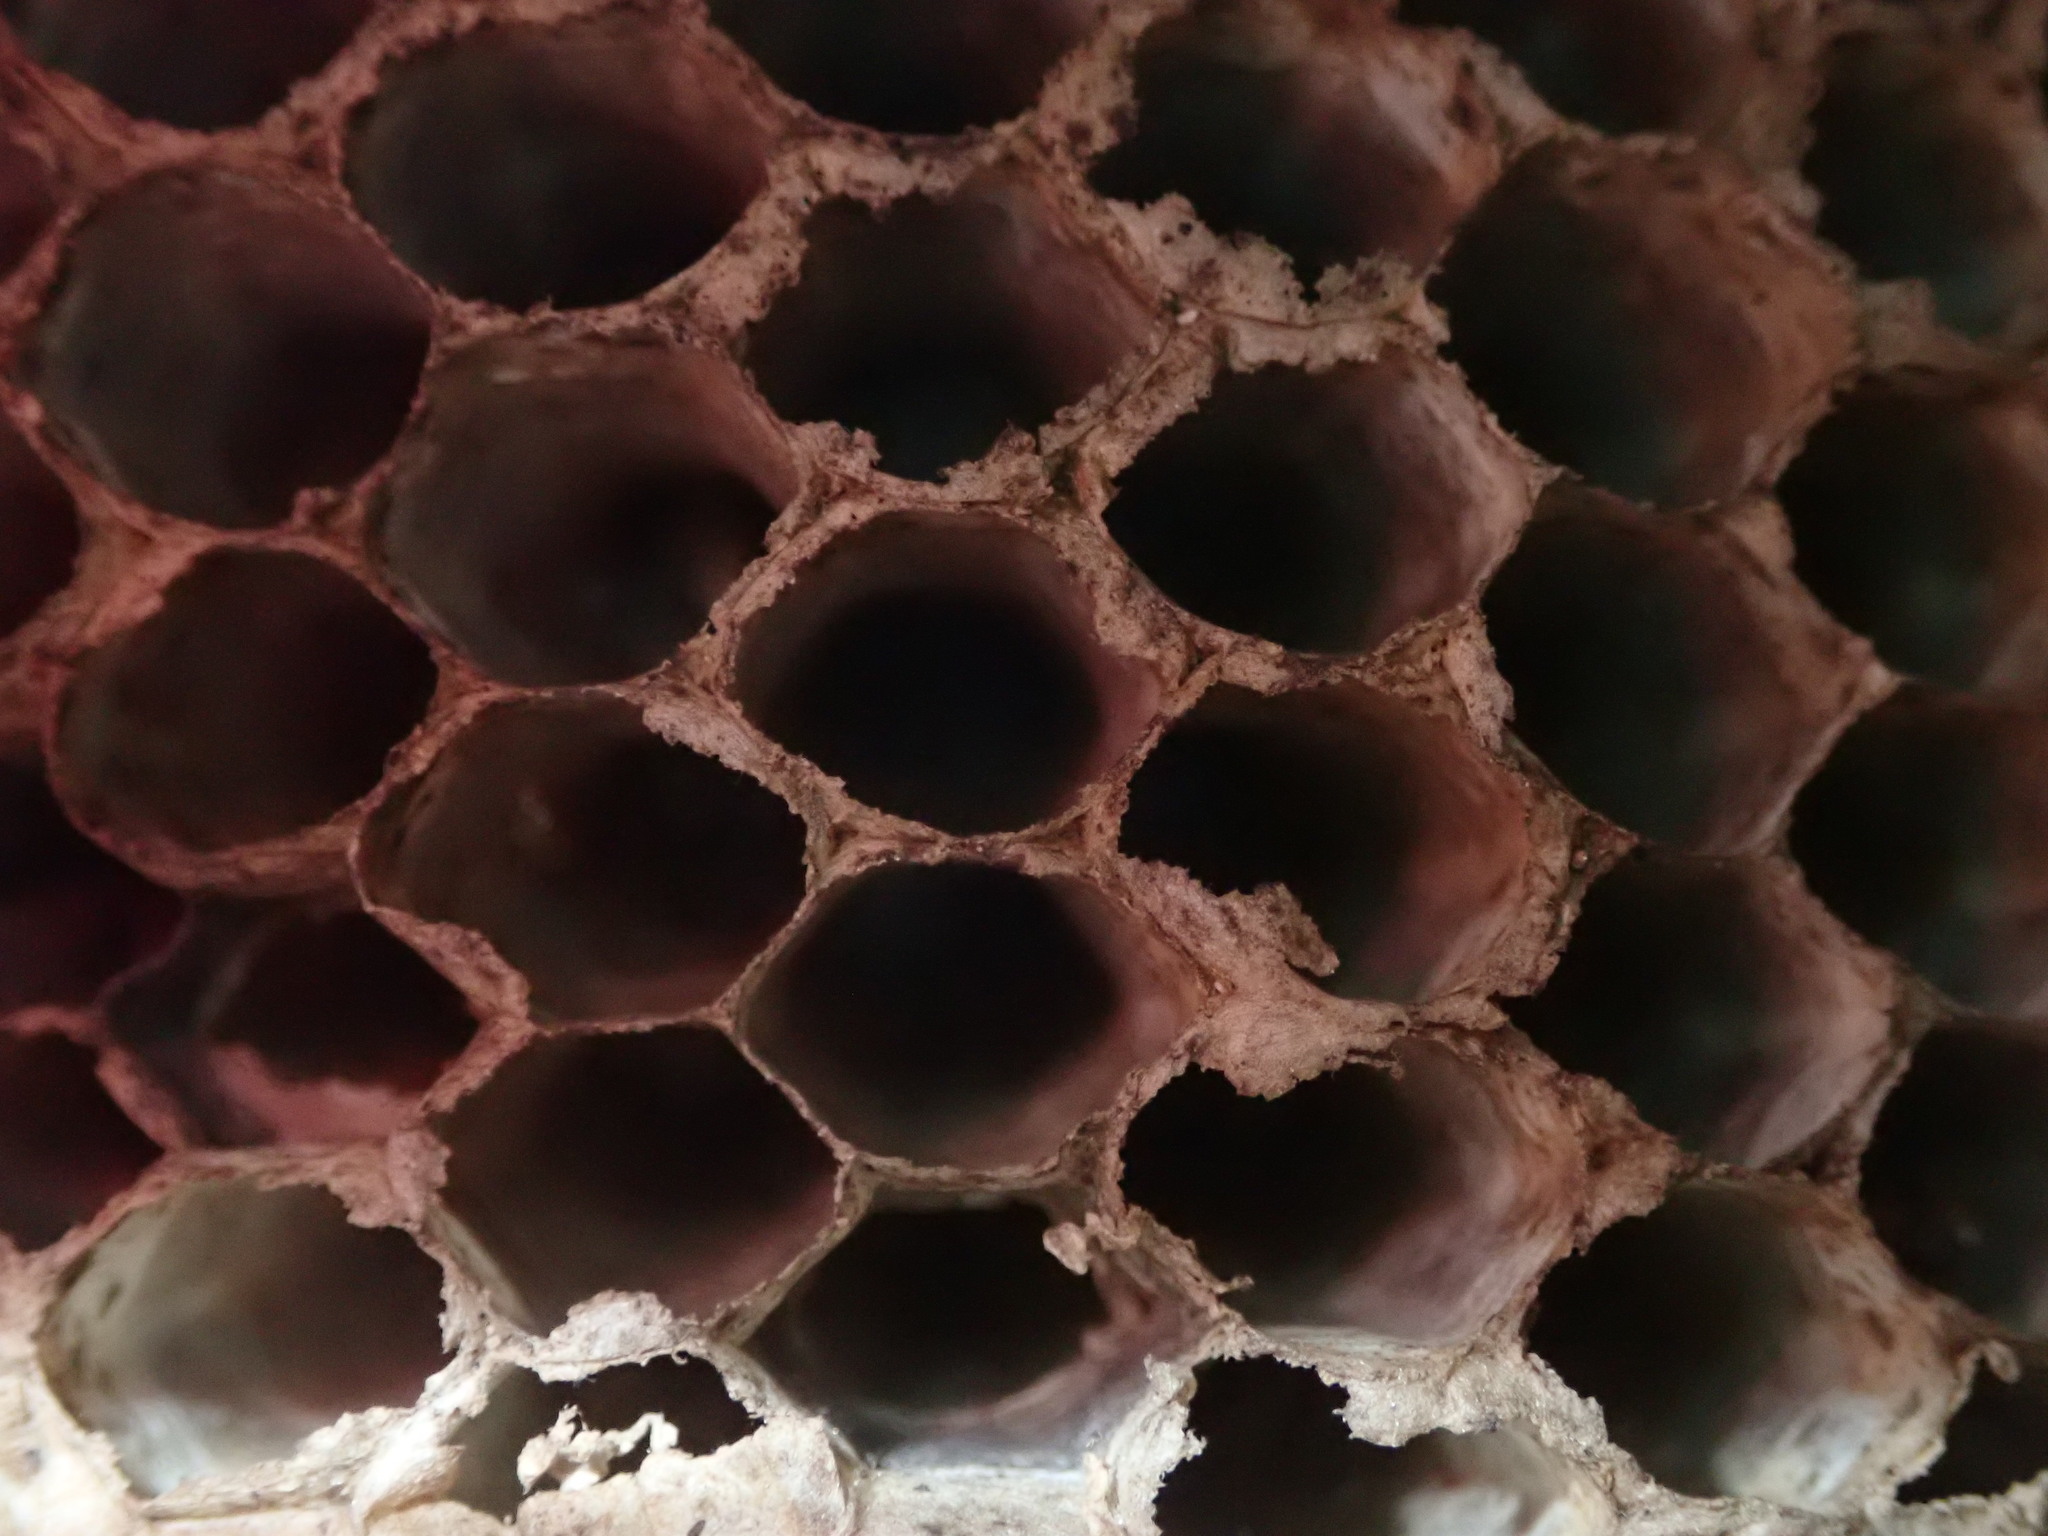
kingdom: Animalia
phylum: Arthropoda
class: Insecta
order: Hymenoptera
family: Vespidae
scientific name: Vespidae
